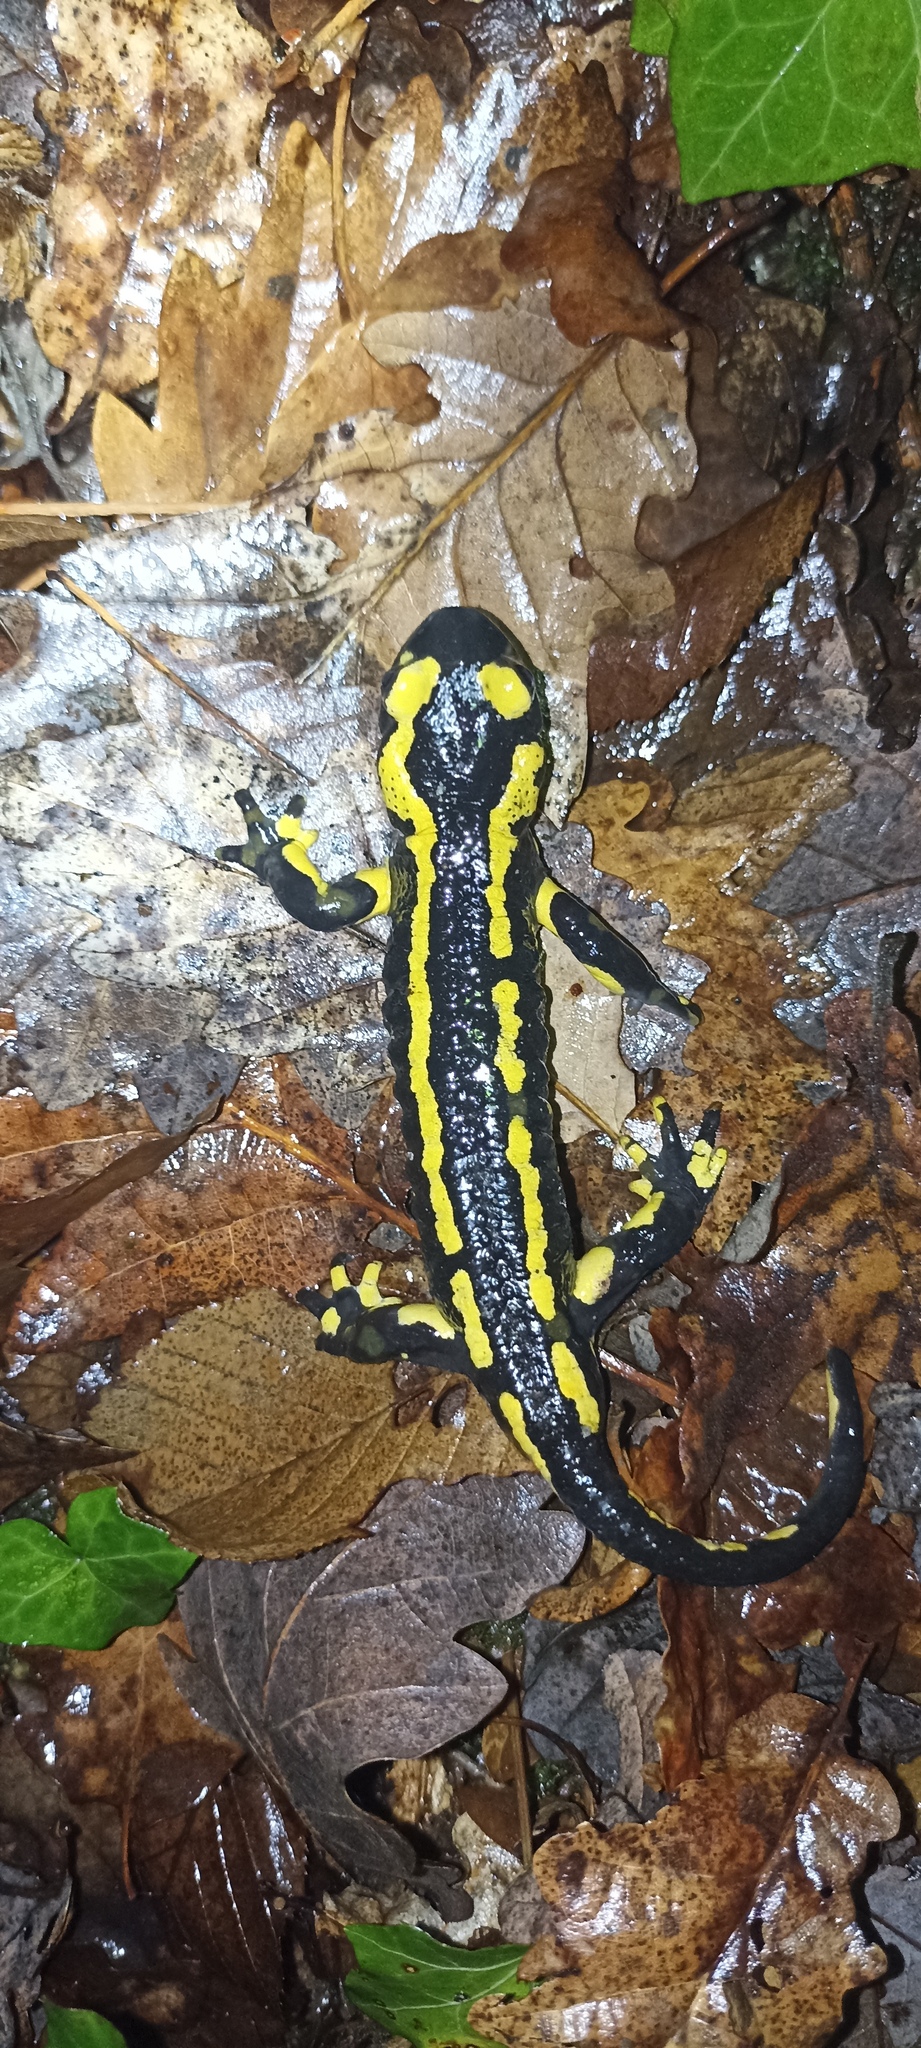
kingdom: Animalia
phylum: Chordata
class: Amphibia
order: Caudata
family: Salamandridae
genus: Salamandra
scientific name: Salamandra salamandra
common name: Fire salamander
